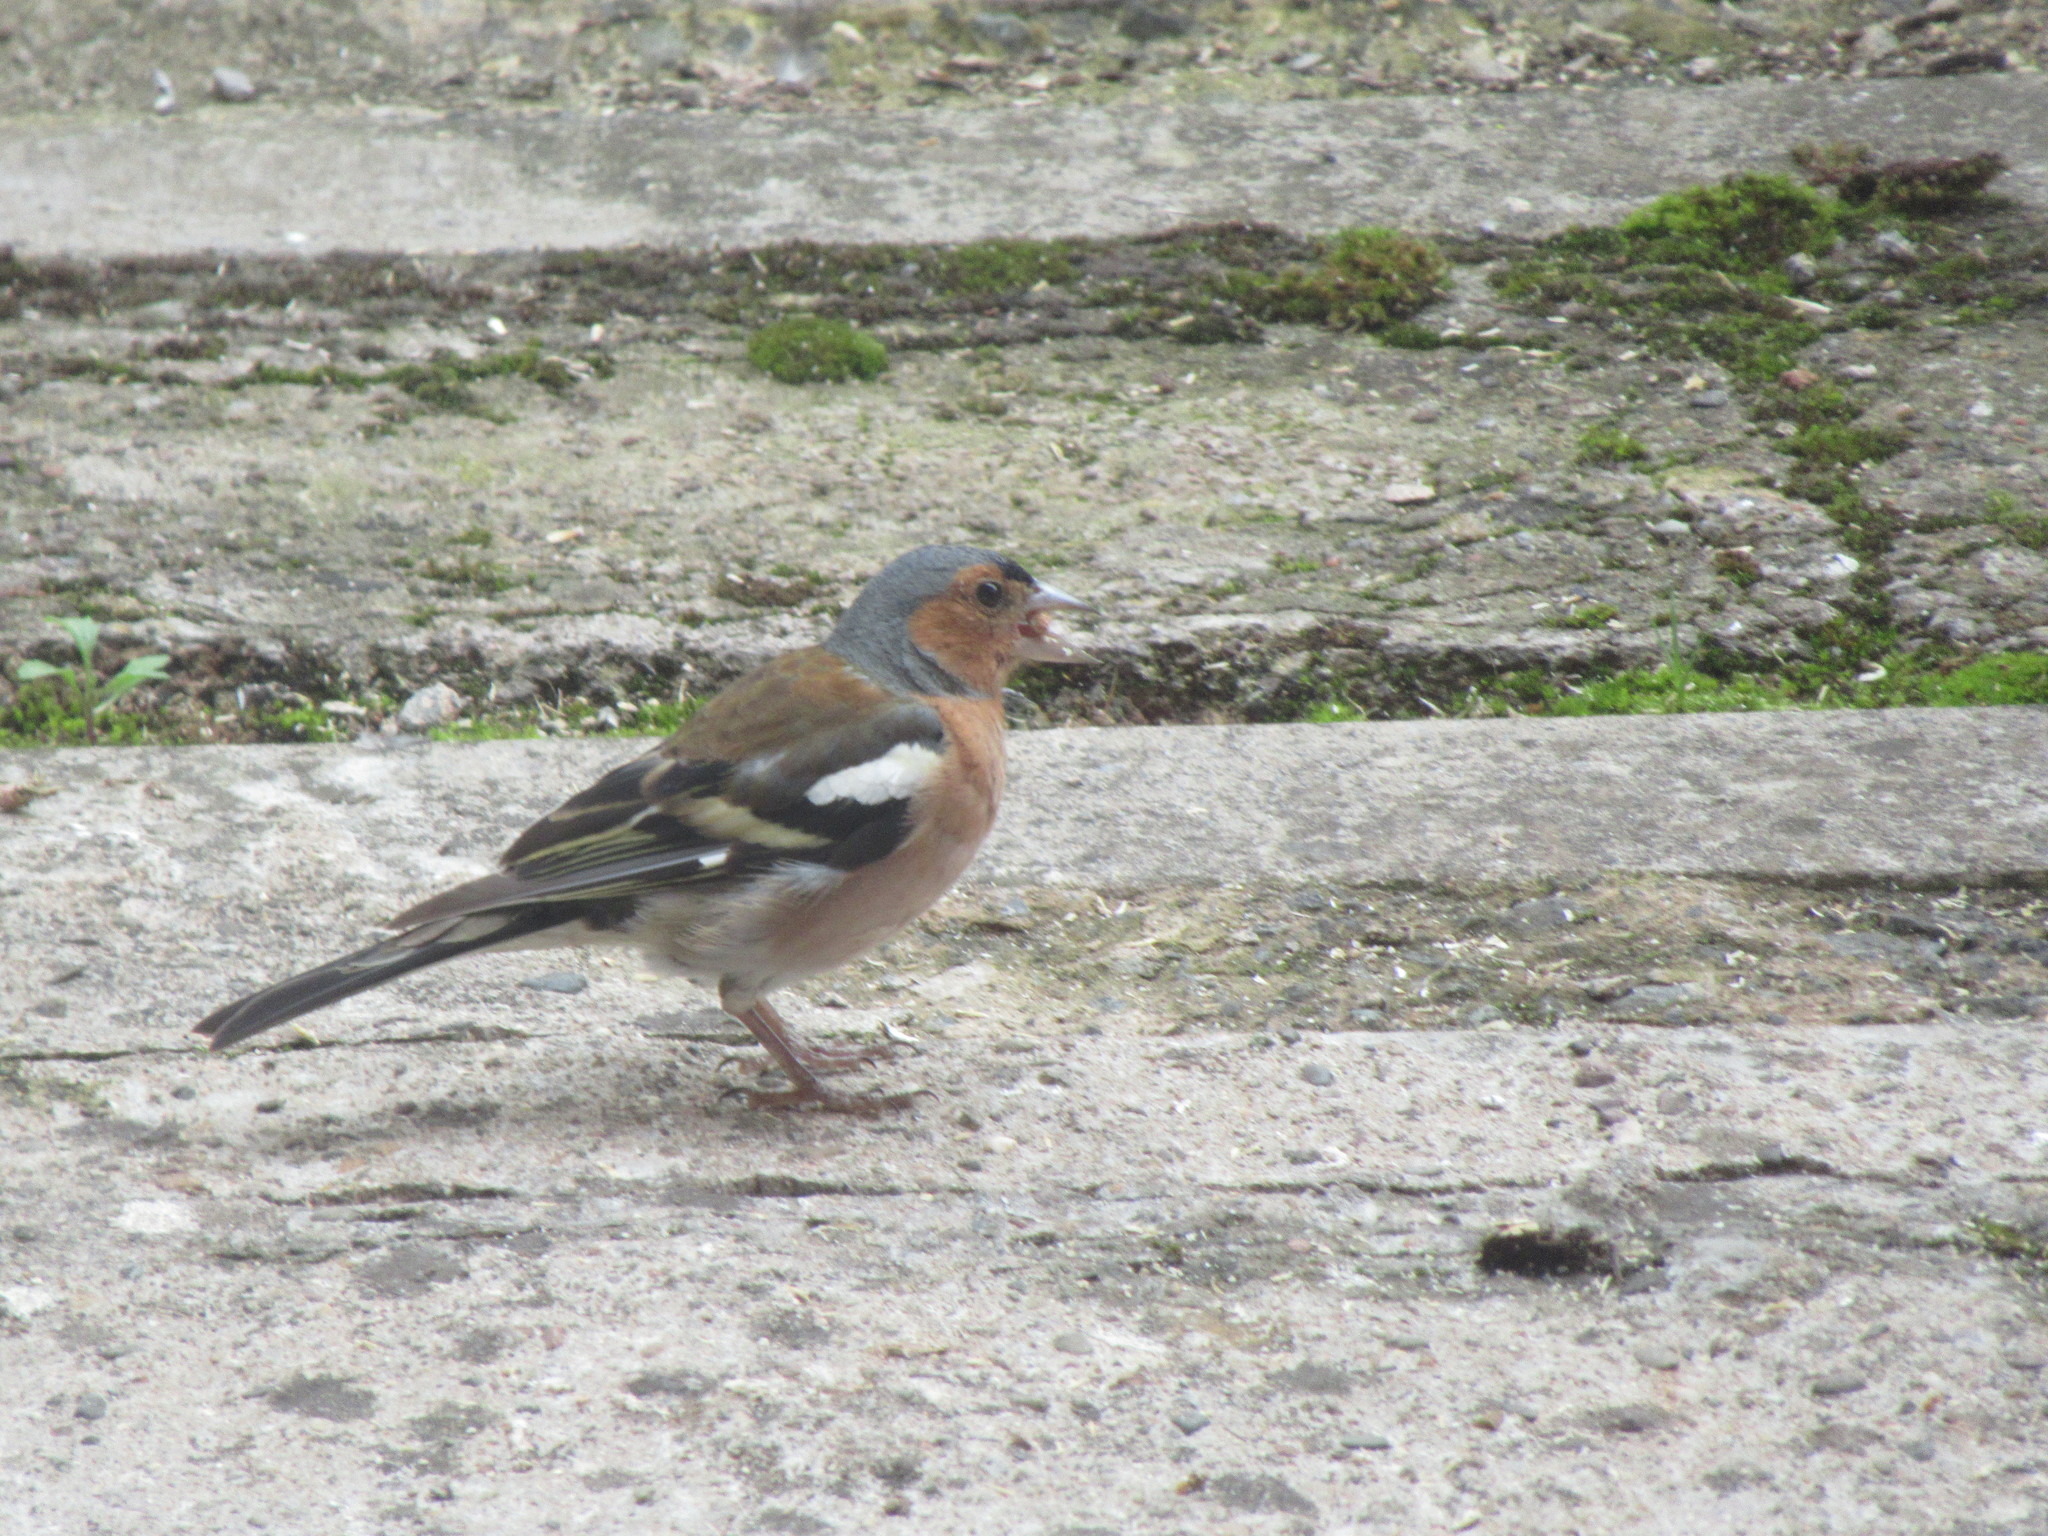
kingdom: Animalia
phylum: Chordata
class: Aves
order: Passeriformes
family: Fringillidae
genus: Fringilla
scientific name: Fringilla coelebs
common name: Common chaffinch
